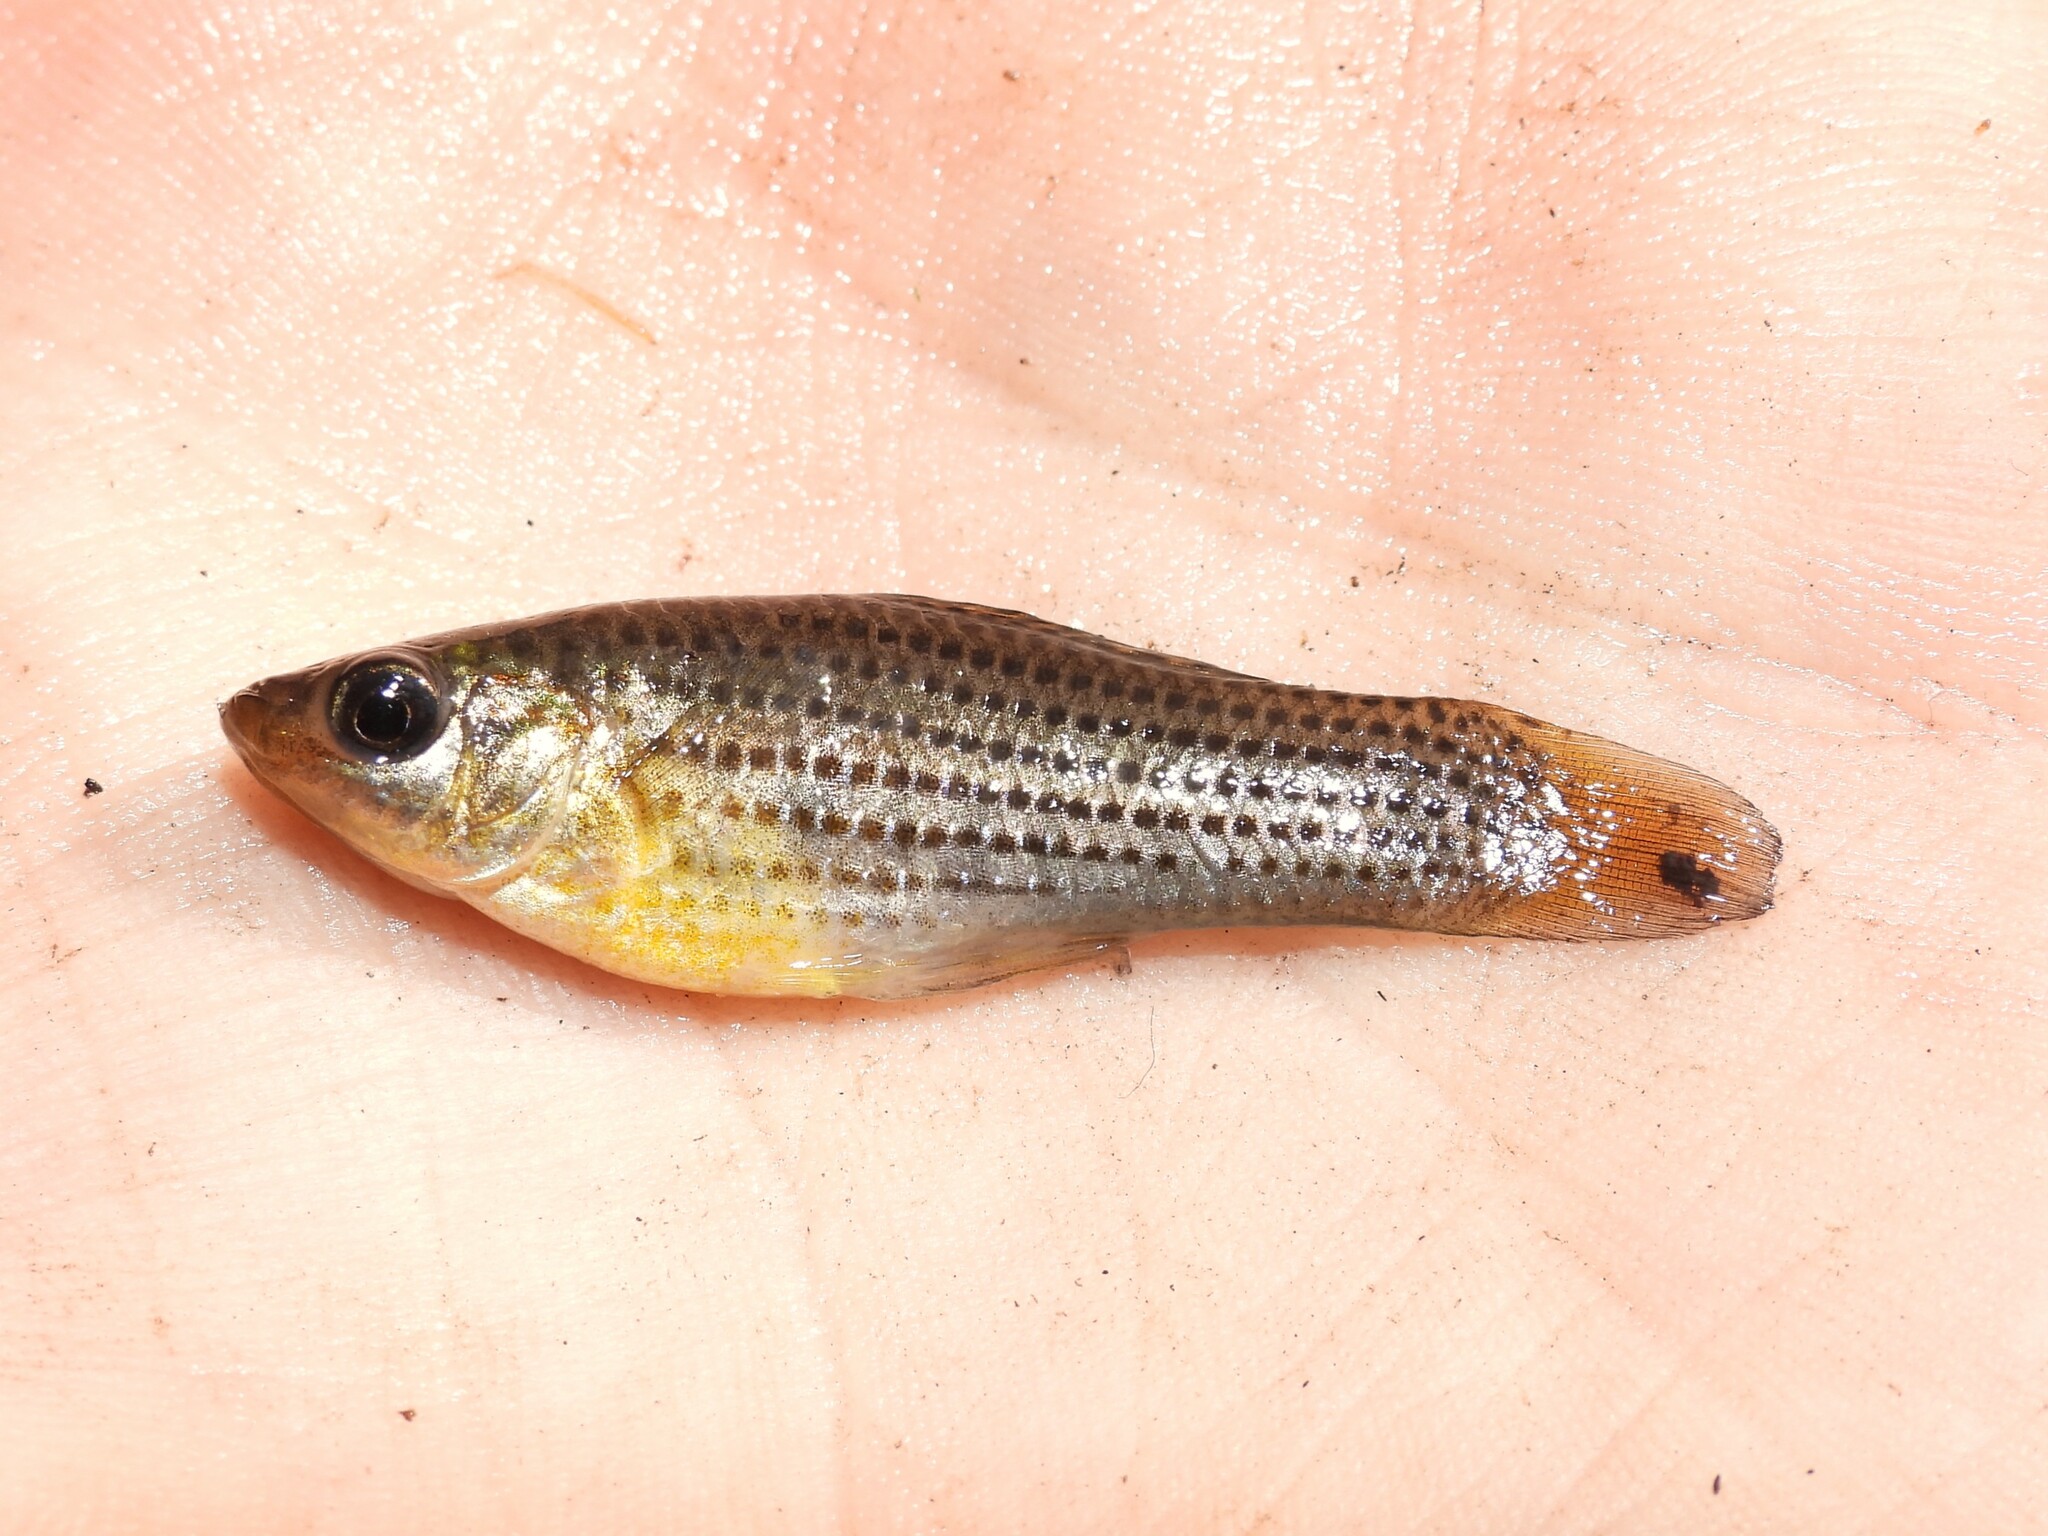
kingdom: Animalia
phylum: Chordata
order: Cyprinodontiformes
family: Poeciliidae
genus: Poecilia
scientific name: Poecilia latipinna
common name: Sailfin molly
